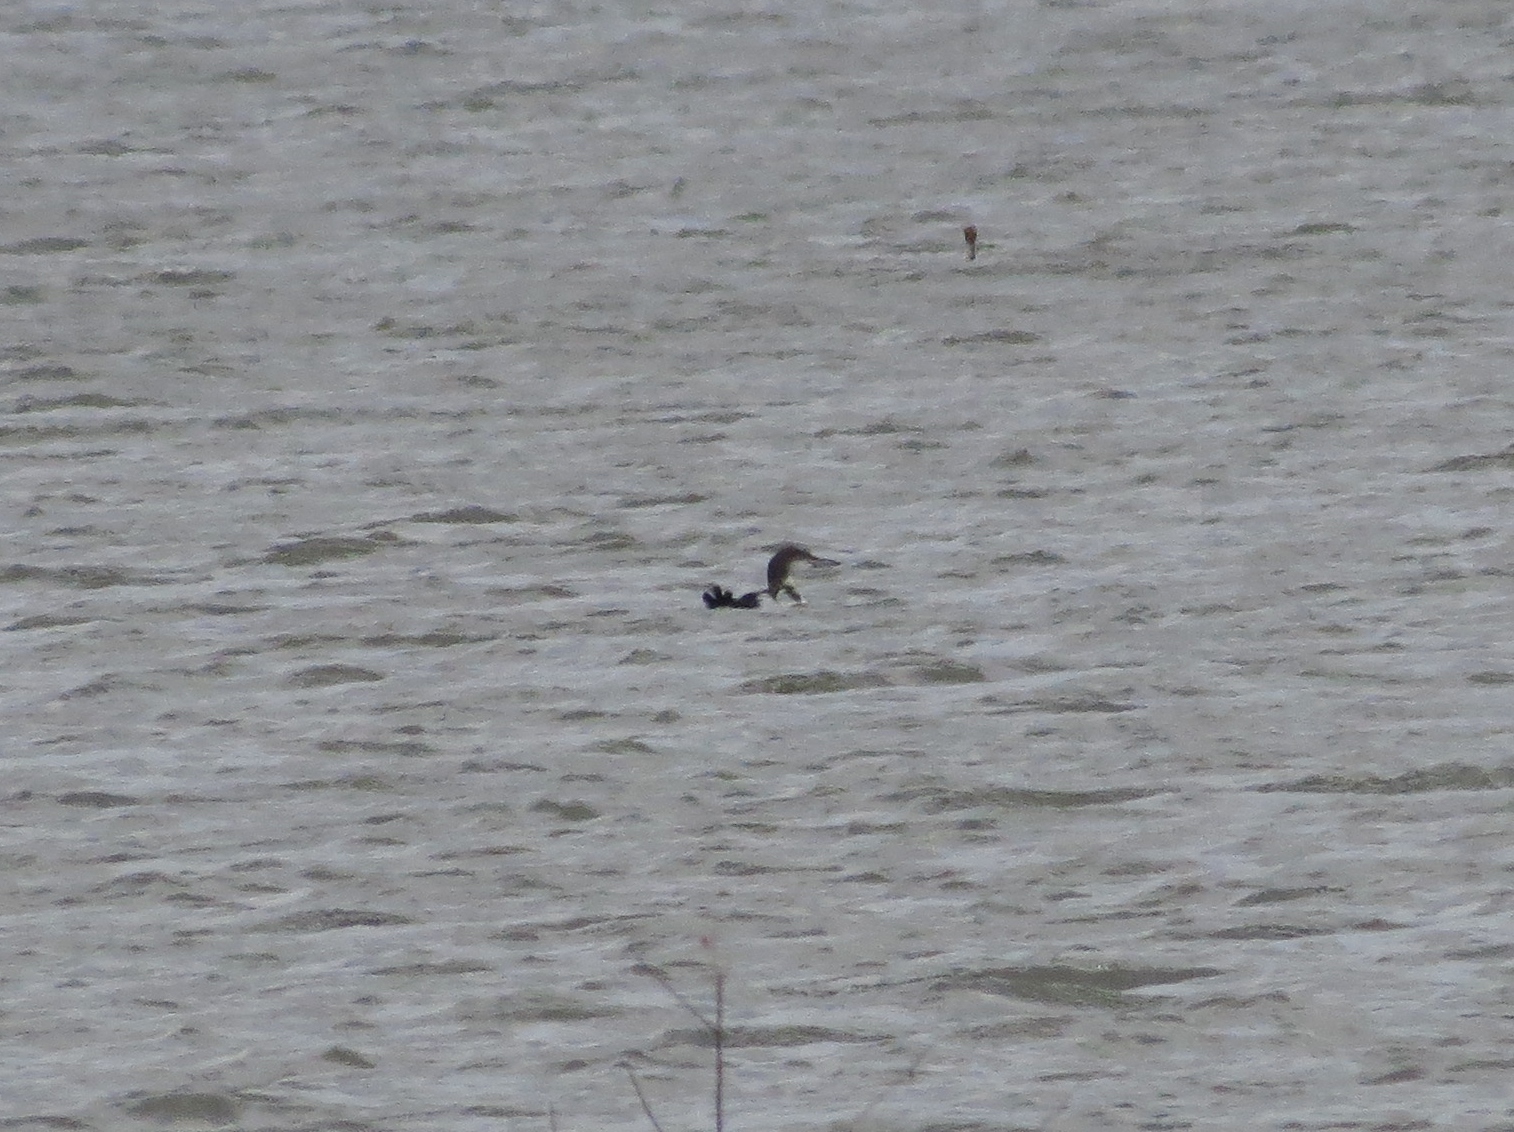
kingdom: Animalia
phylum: Chordata
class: Aves
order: Gaviiformes
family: Gaviidae
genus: Gavia
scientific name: Gavia immer
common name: Common loon
